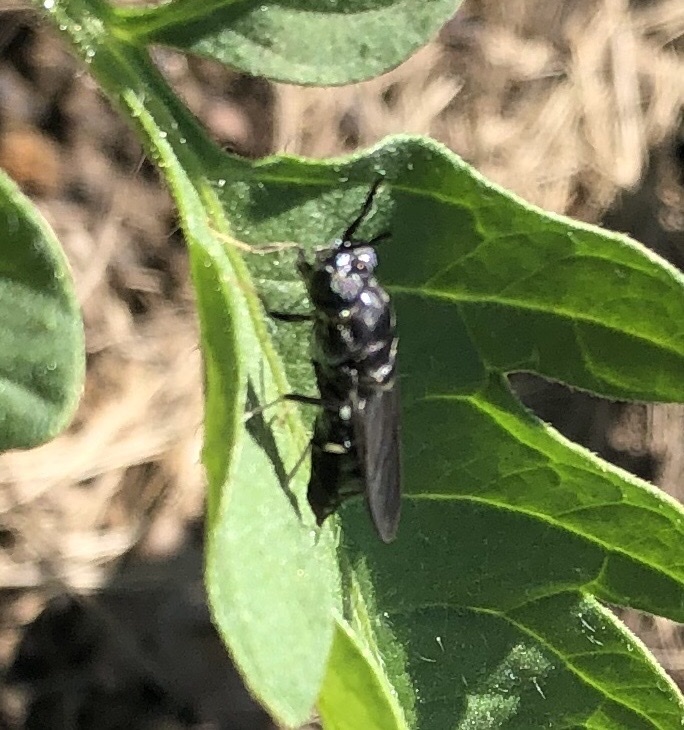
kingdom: Animalia
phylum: Arthropoda
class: Insecta
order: Diptera
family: Stratiomyidae
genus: Hermetia
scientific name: Hermetia illucens
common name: Black soldier fly
